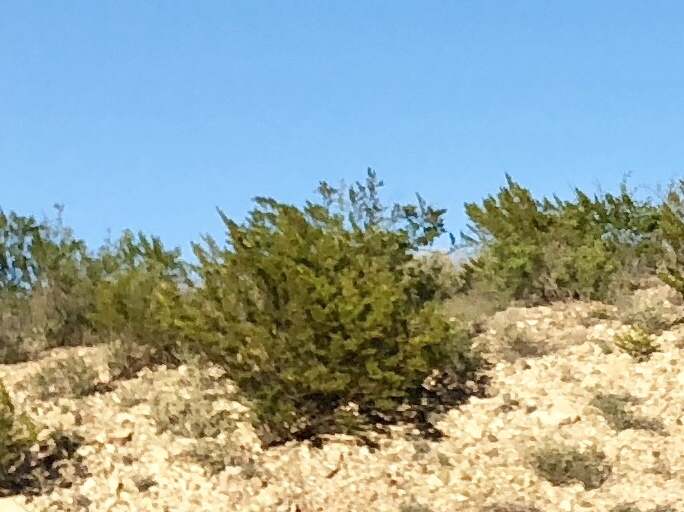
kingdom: Plantae
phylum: Tracheophyta
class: Magnoliopsida
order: Zygophyllales
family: Zygophyllaceae
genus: Larrea
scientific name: Larrea tridentata
